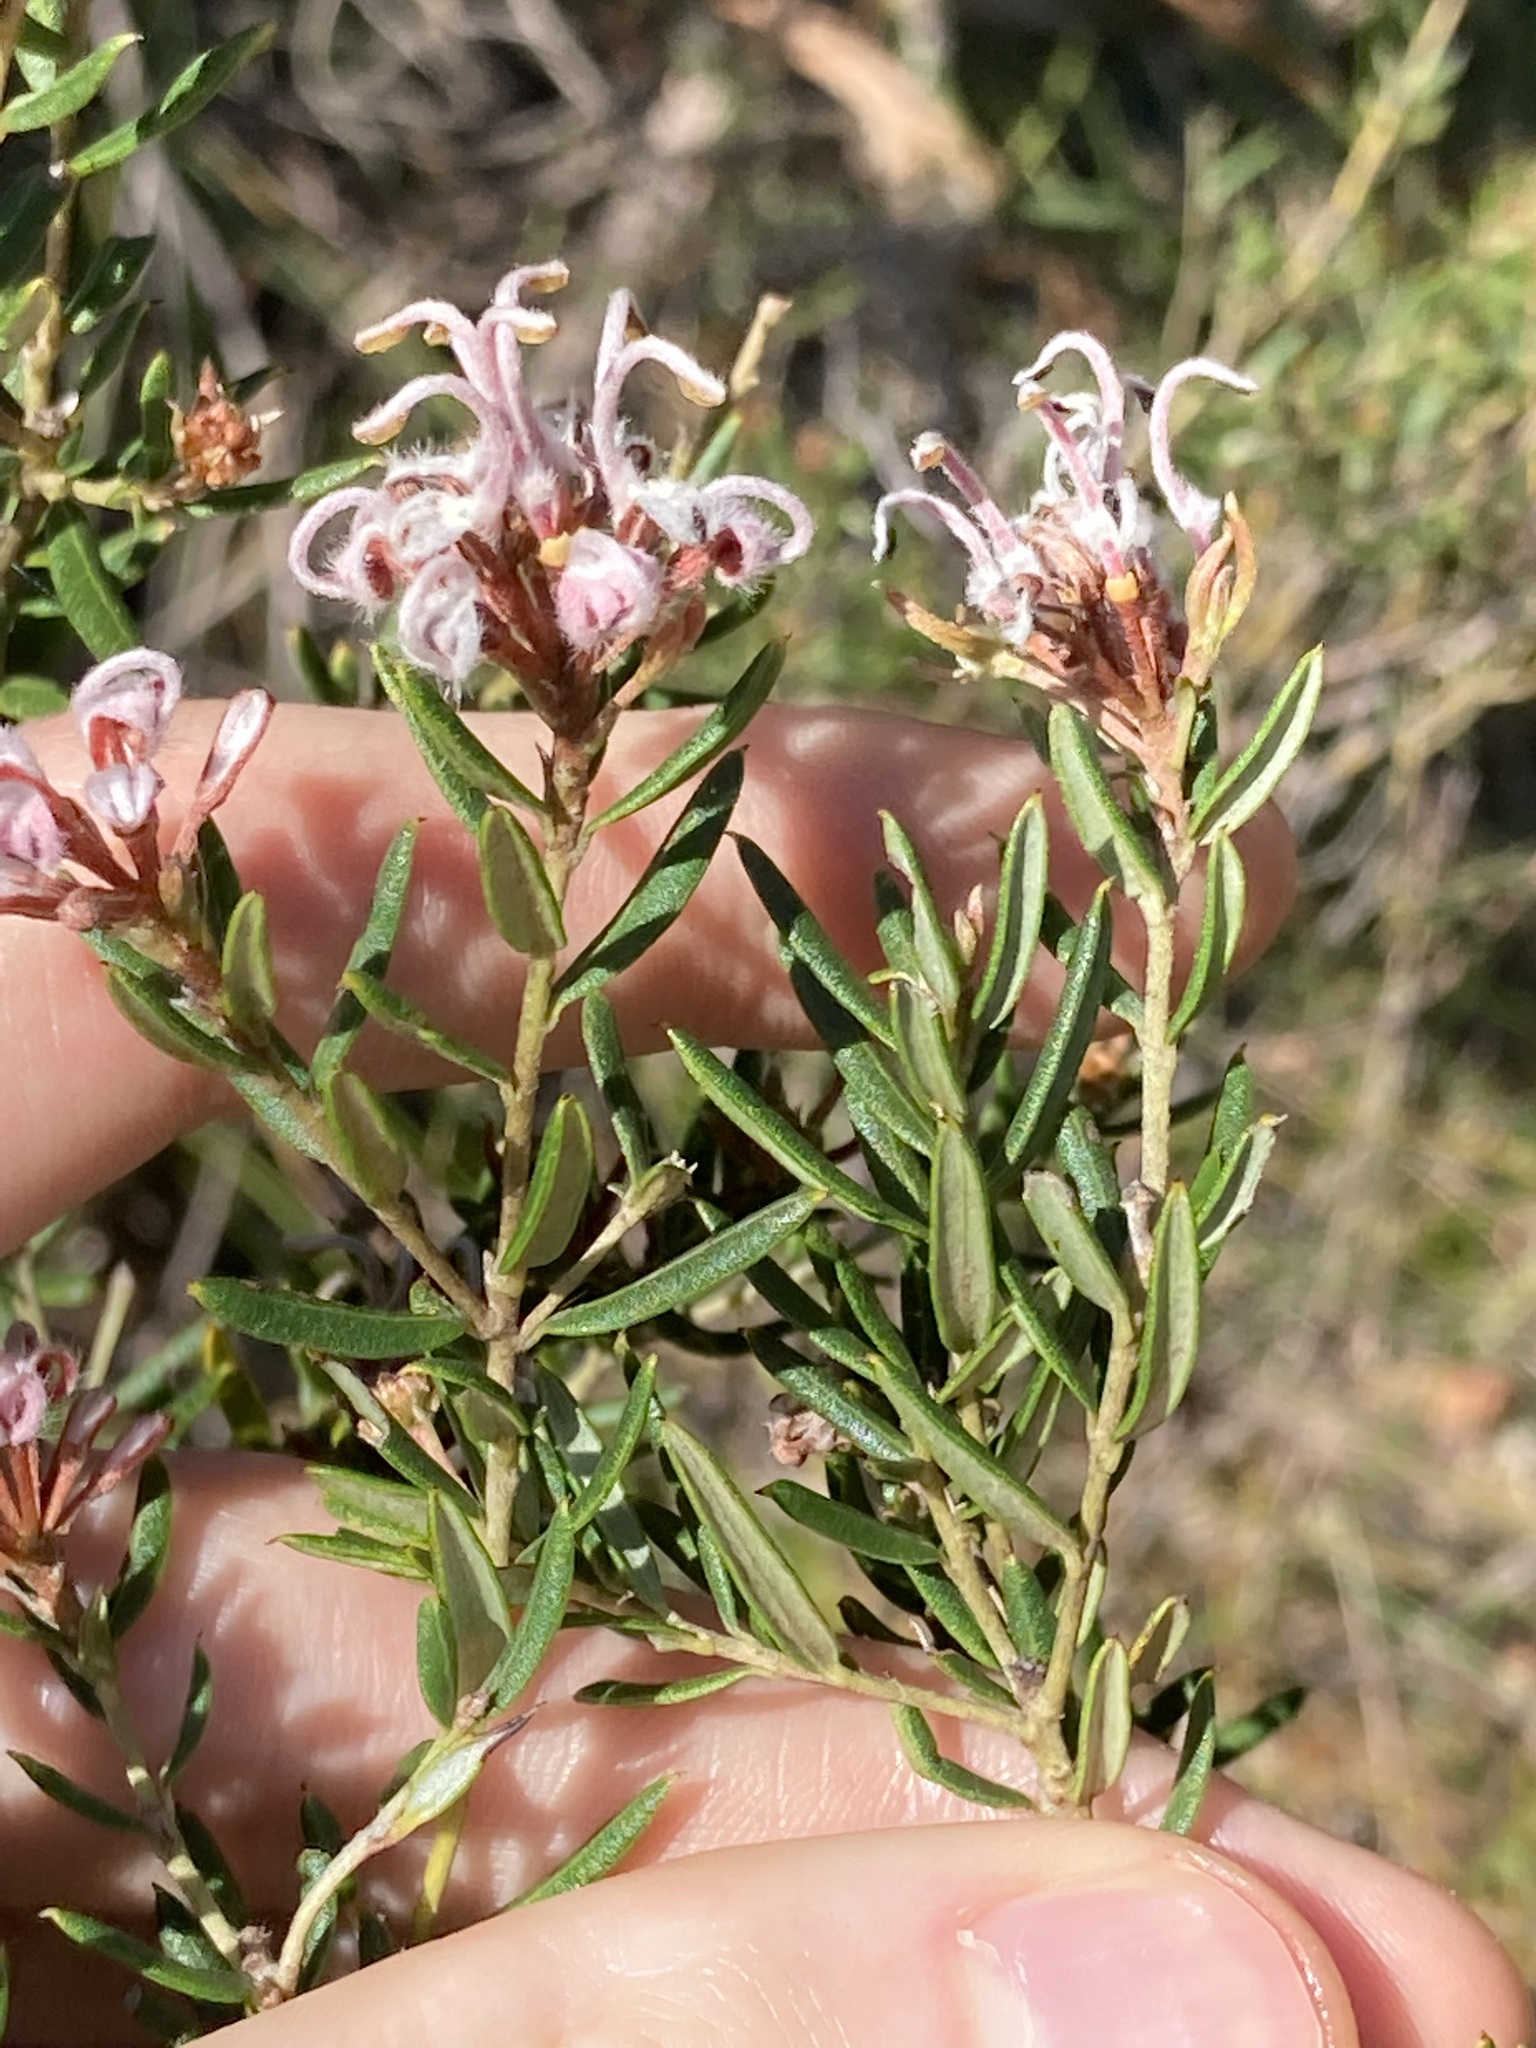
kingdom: Plantae
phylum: Tracheophyta
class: Magnoliopsida
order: Proteales
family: Proteaceae
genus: Grevillea
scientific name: Grevillea sphacelata
